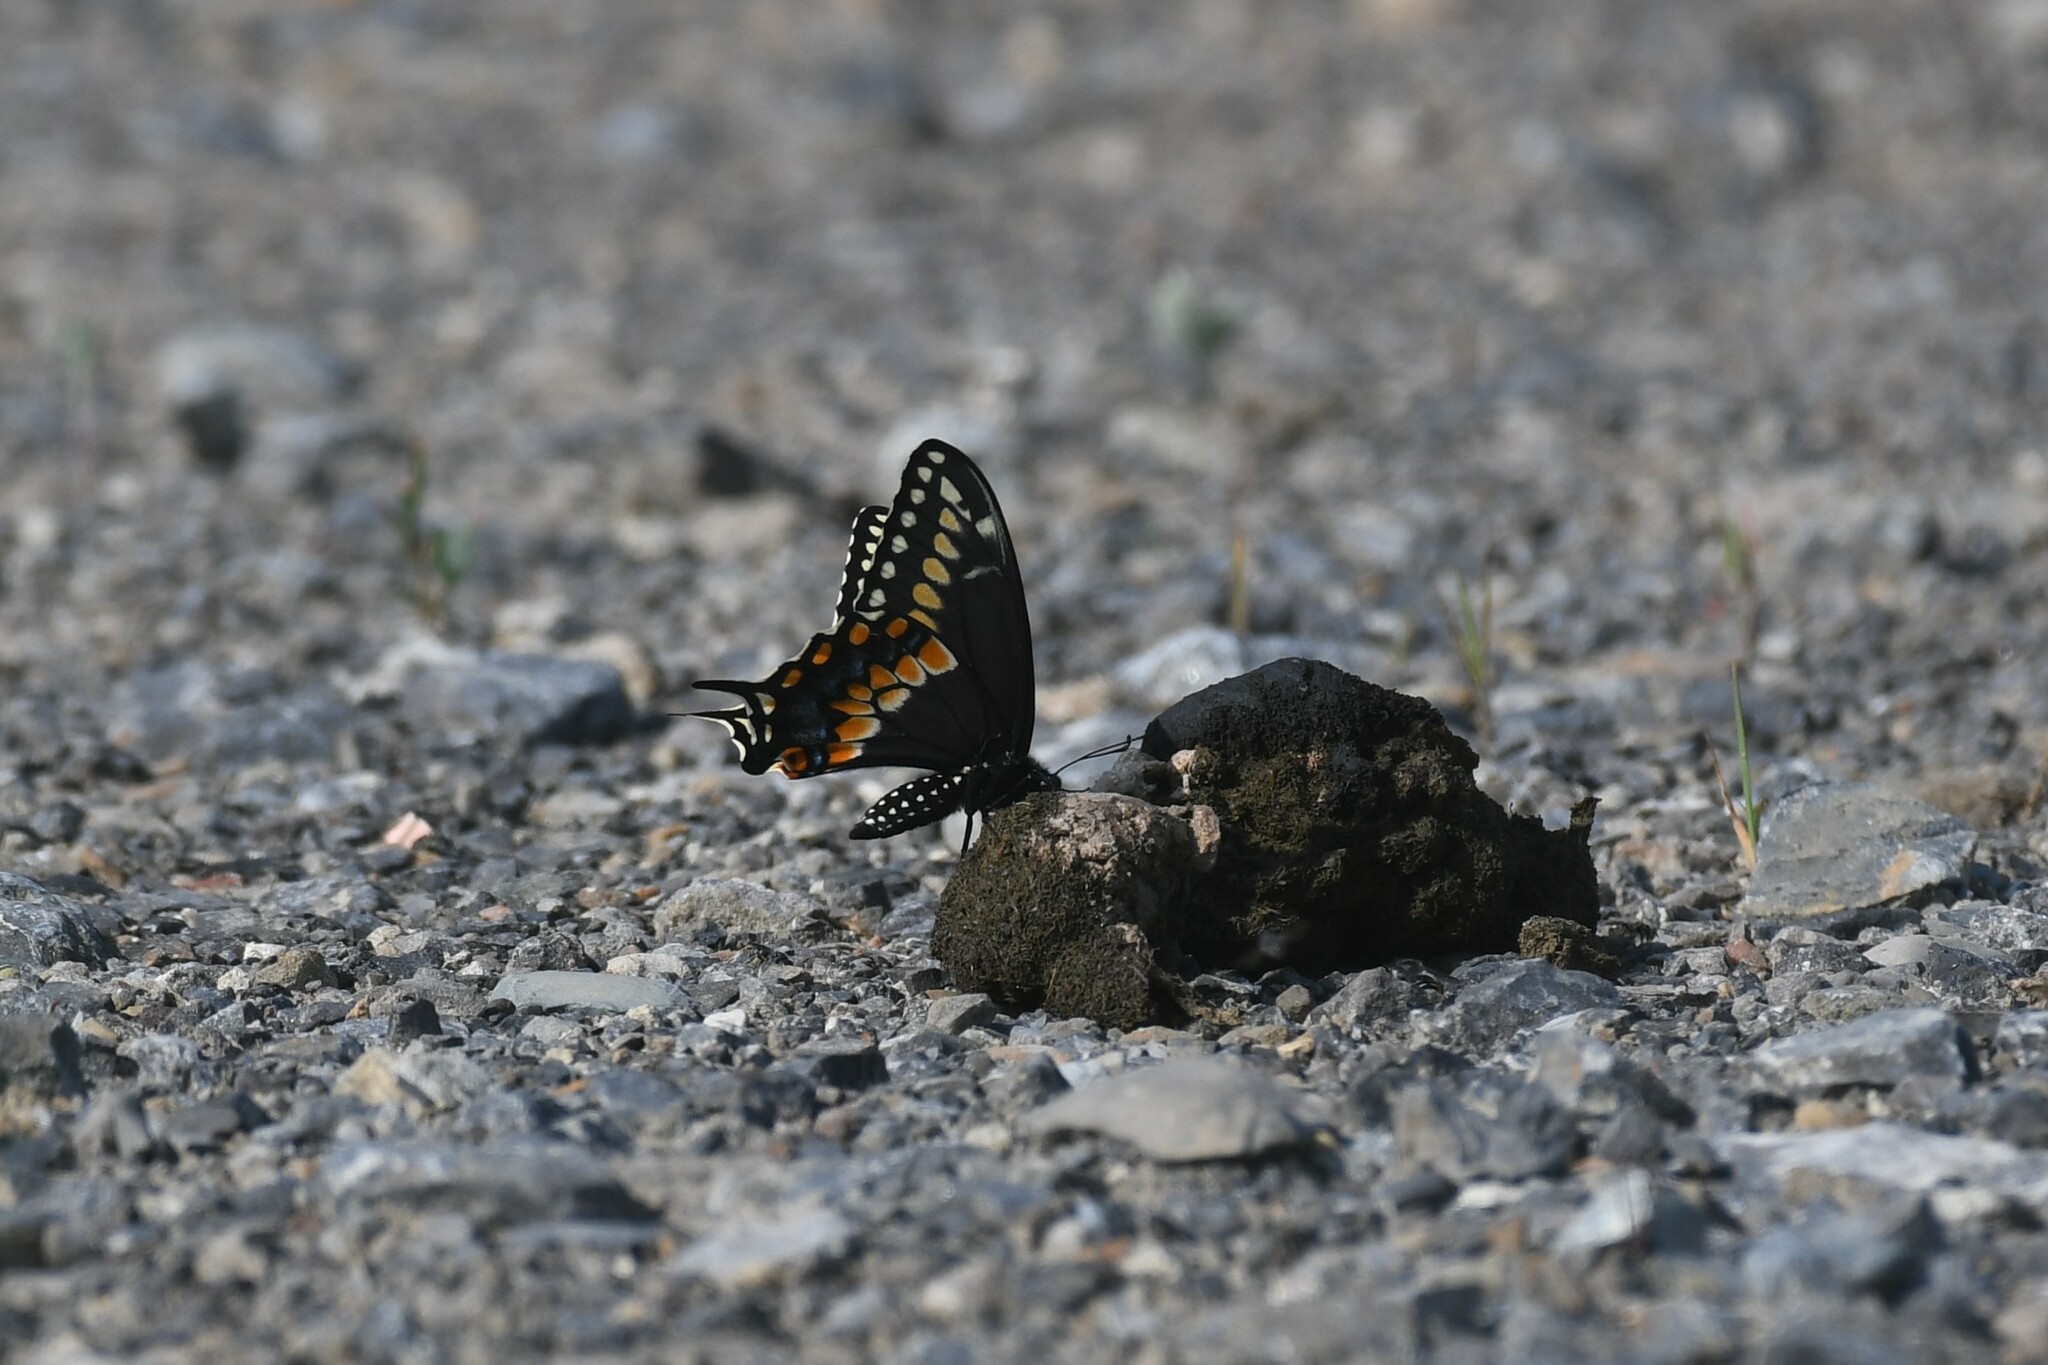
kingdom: Animalia
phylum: Arthropoda
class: Insecta
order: Lepidoptera
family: Papilionidae
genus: Papilio
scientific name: Papilio polyxenes
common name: Black swallowtail
